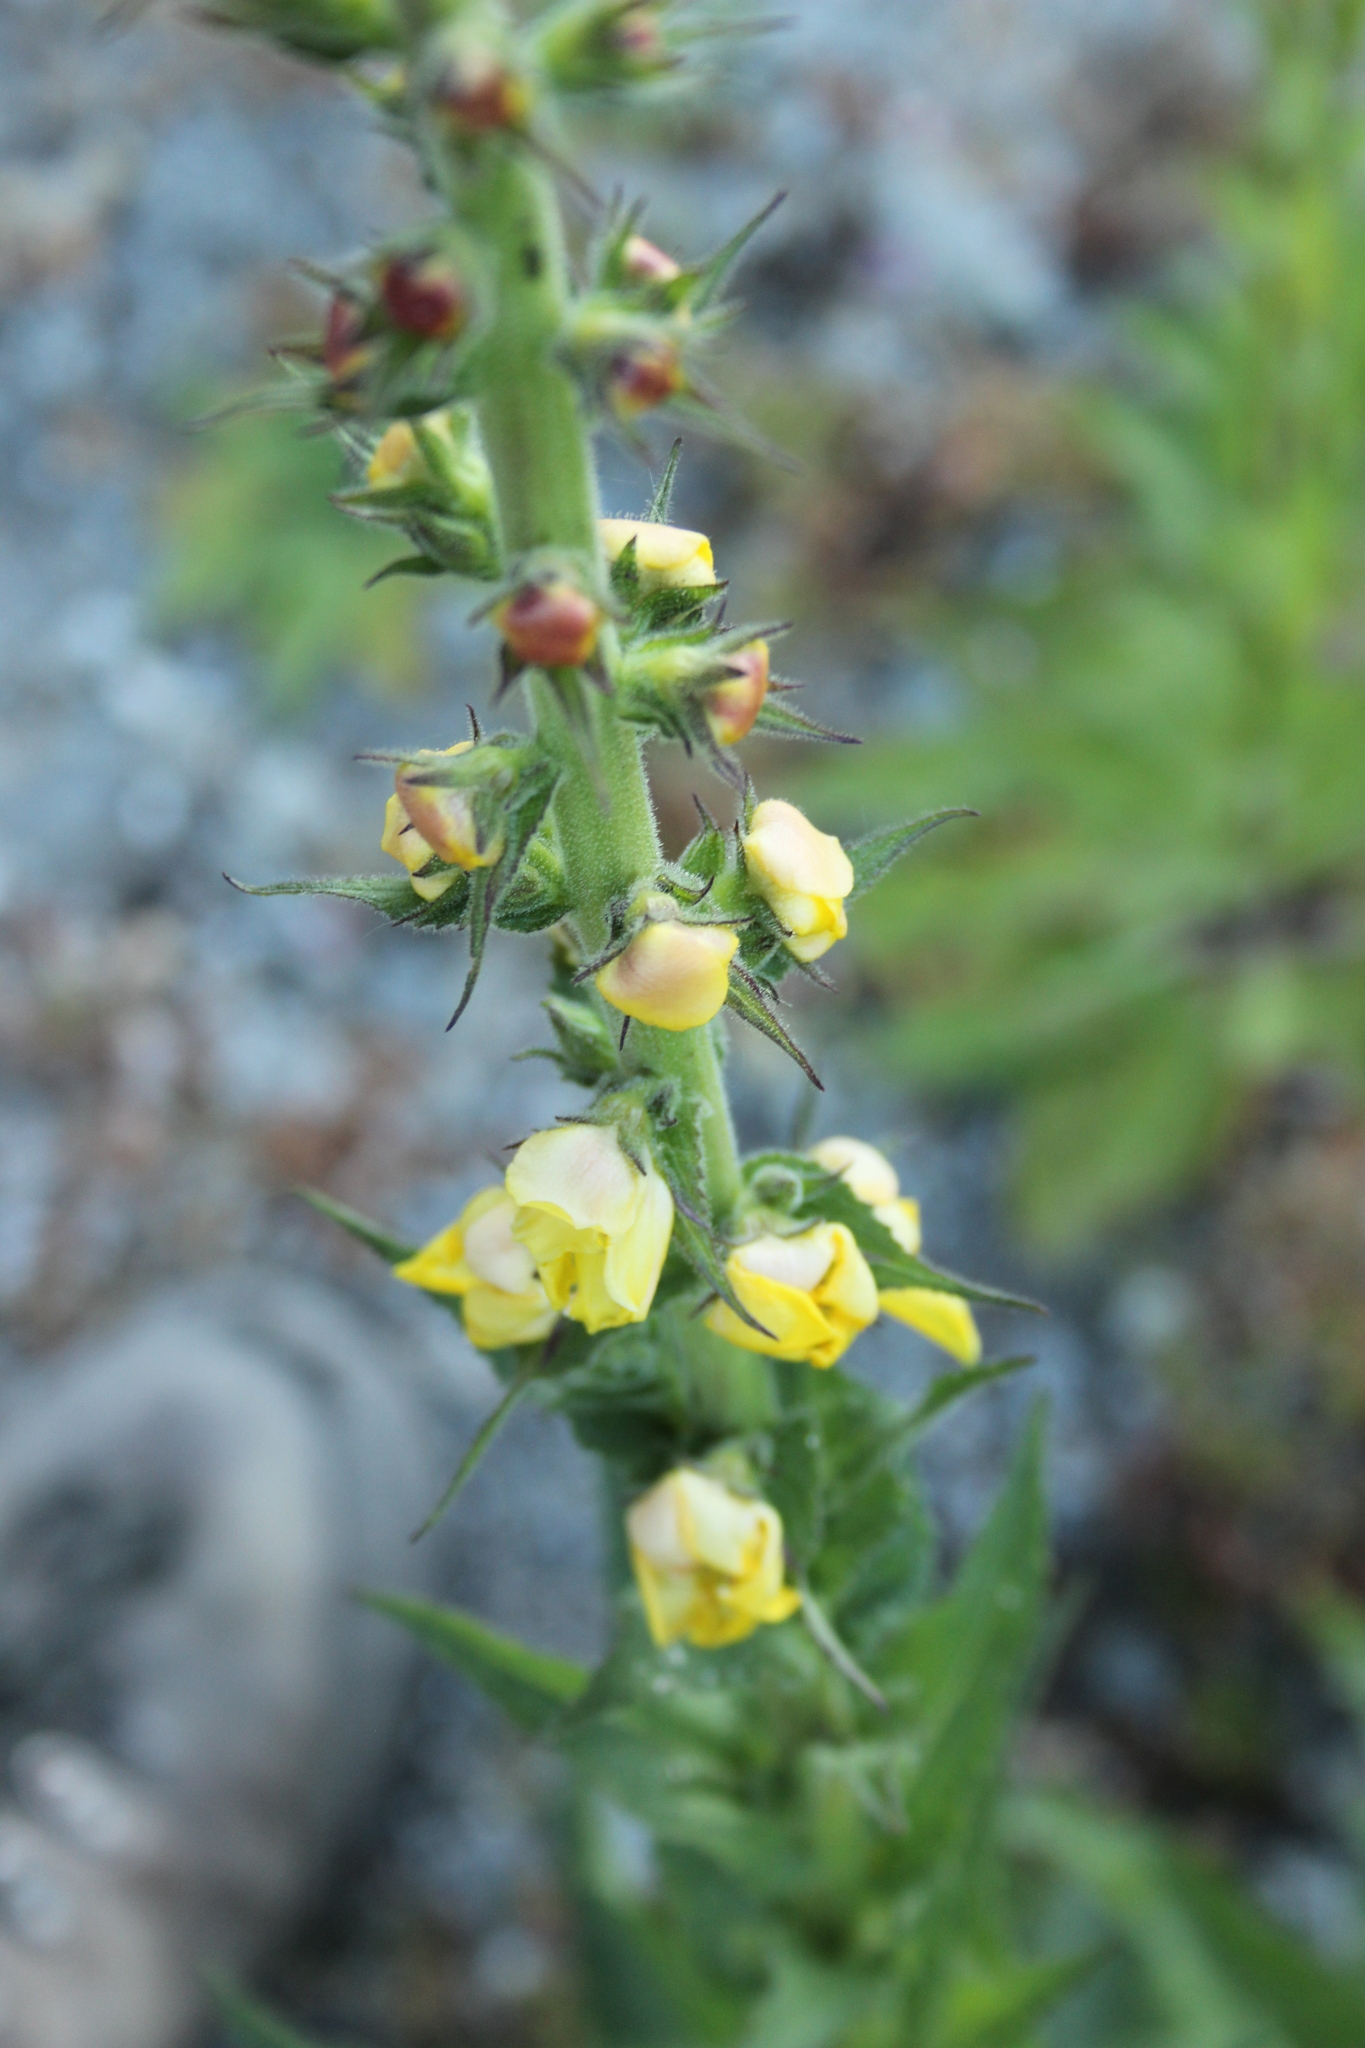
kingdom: Plantae
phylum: Tracheophyta
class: Magnoliopsida
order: Lamiales
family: Scrophulariaceae
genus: Verbascum
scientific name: Verbascum virgatum
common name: Twiggy mullein
